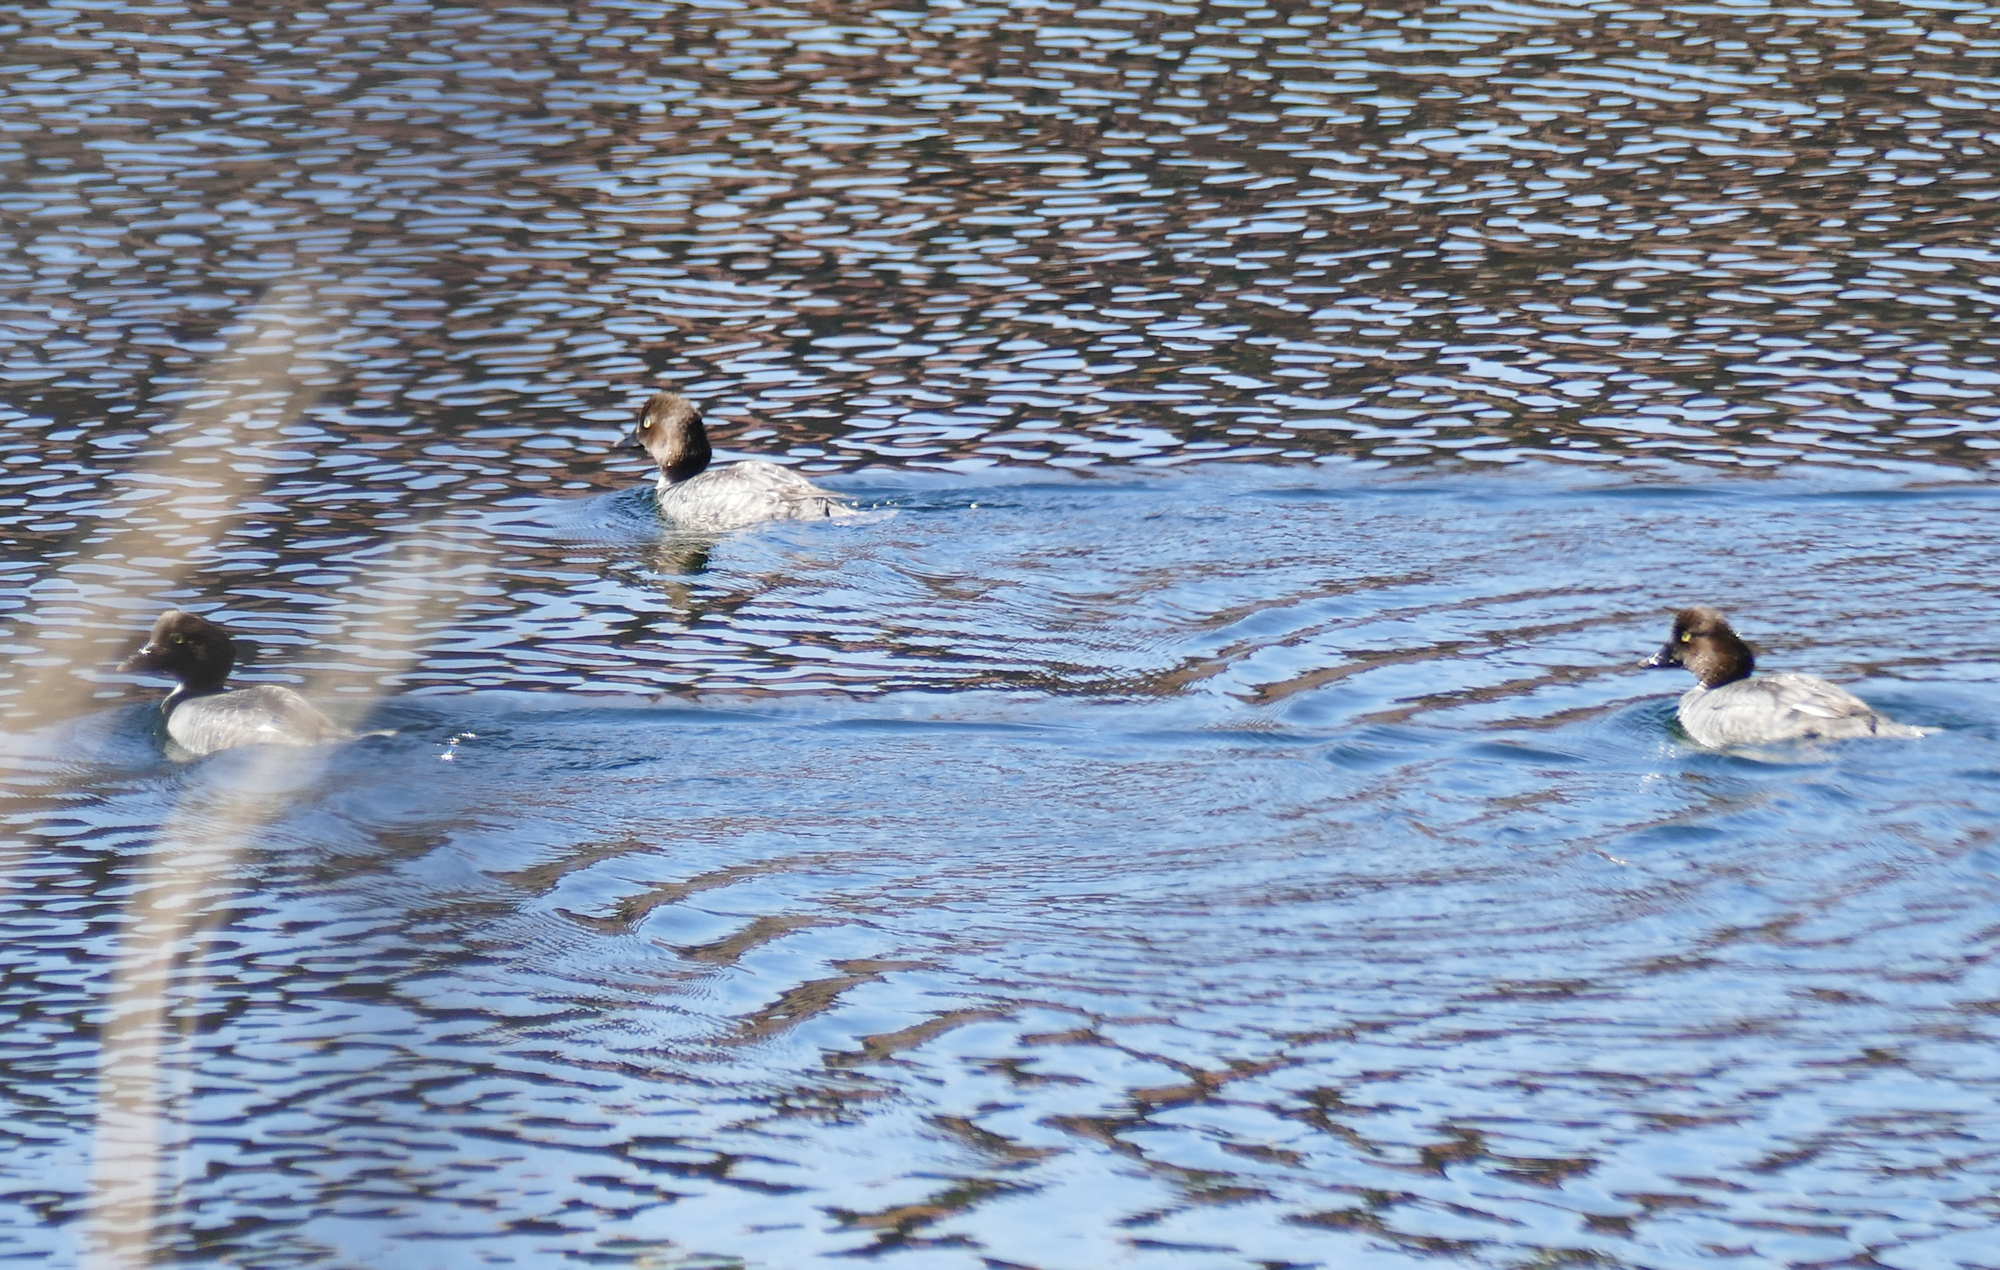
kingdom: Animalia
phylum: Chordata
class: Aves
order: Anseriformes
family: Anatidae
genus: Bucephala
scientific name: Bucephala clangula
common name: Common goldeneye
